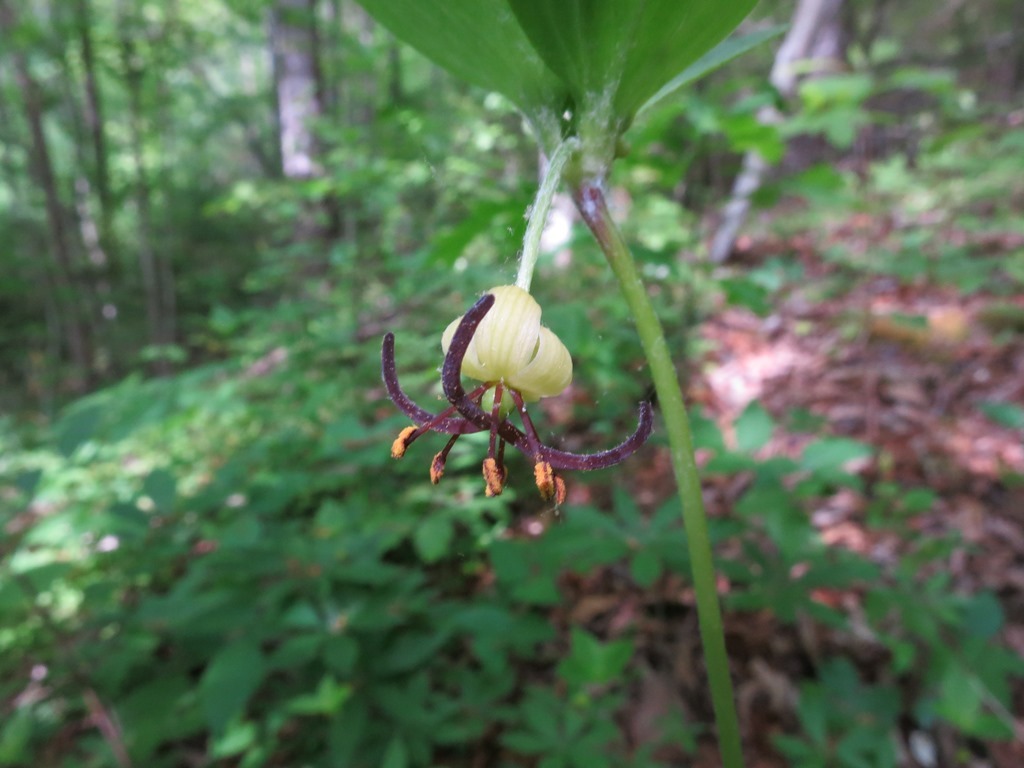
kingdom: Plantae
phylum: Tracheophyta
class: Liliopsida
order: Liliales
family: Liliaceae
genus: Medeola
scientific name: Medeola virginiana
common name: Indian cucumber-root
